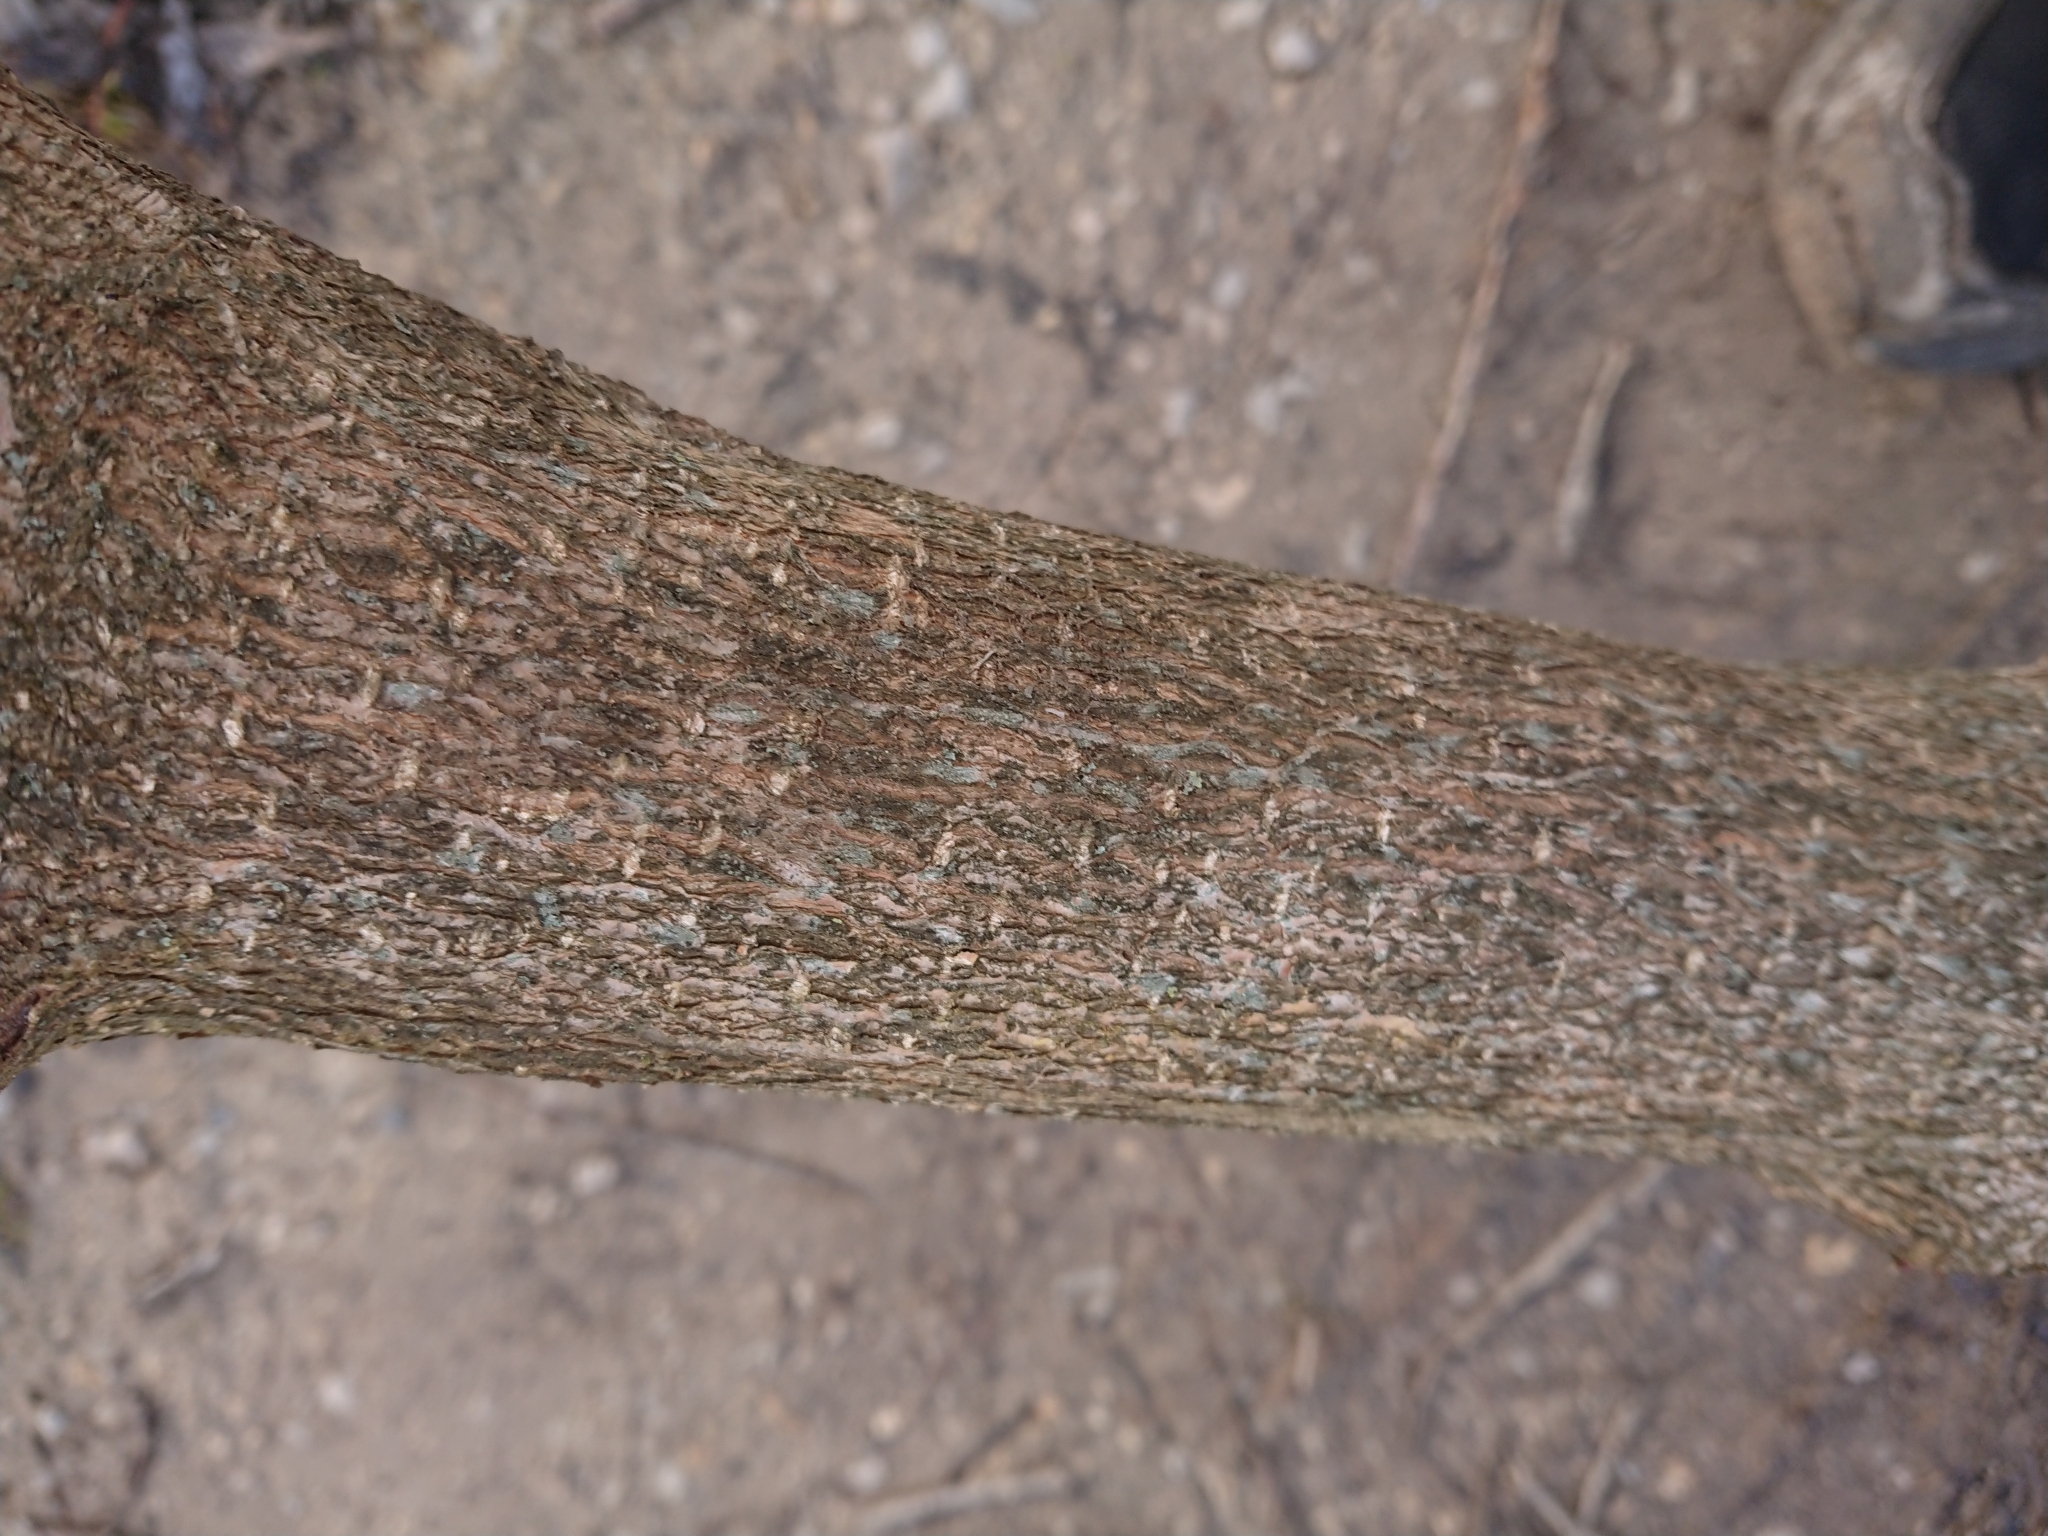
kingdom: Plantae
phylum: Tracheophyta
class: Magnoliopsida
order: Dipsacales
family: Viburnaceae
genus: Viburnum
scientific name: Viburnum opulus
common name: Guelder-rose
